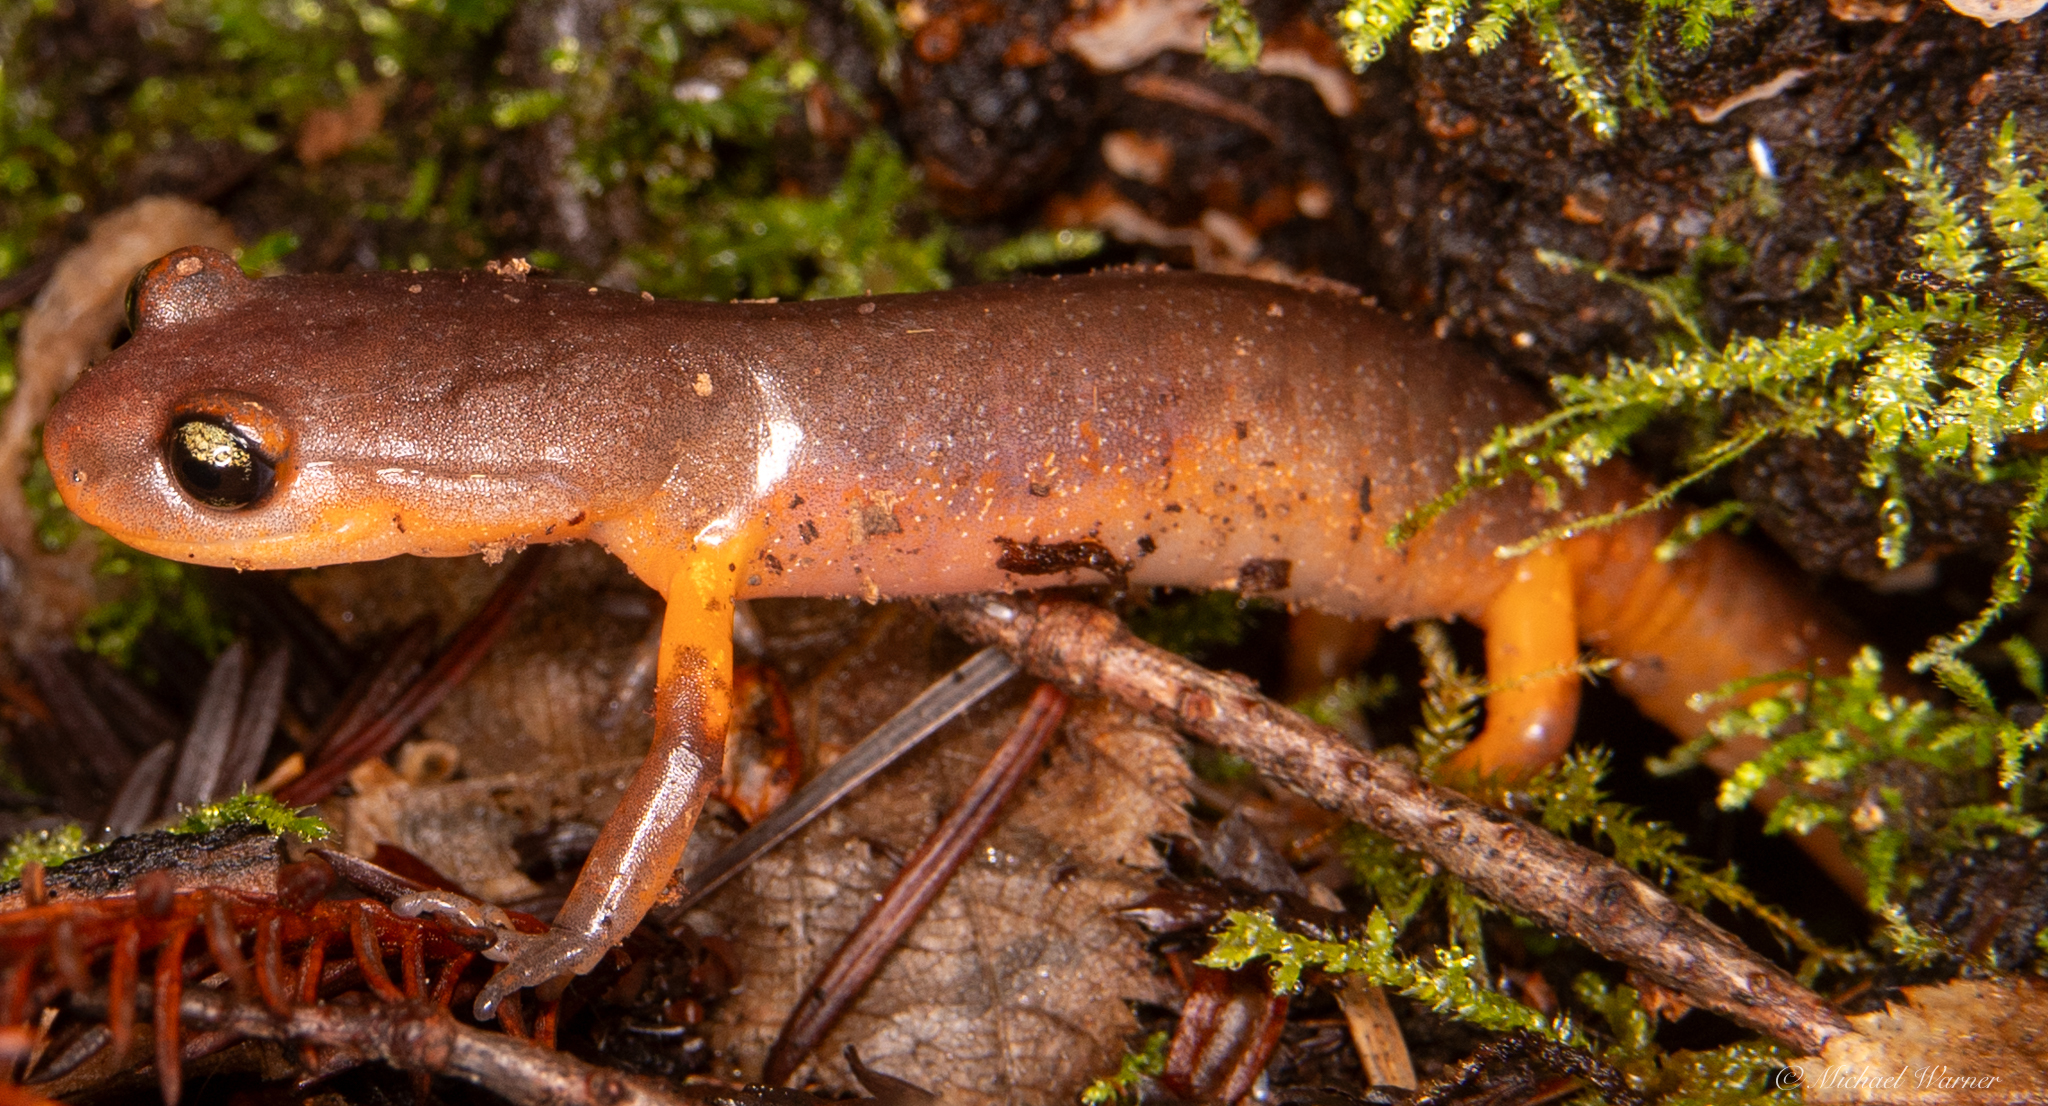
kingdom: Animalia
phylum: Chordata
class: Amphibia
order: Caudata
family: Plethodontidae
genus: Ensatina
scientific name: Ensatina eschscholtzii
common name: Ensatina
